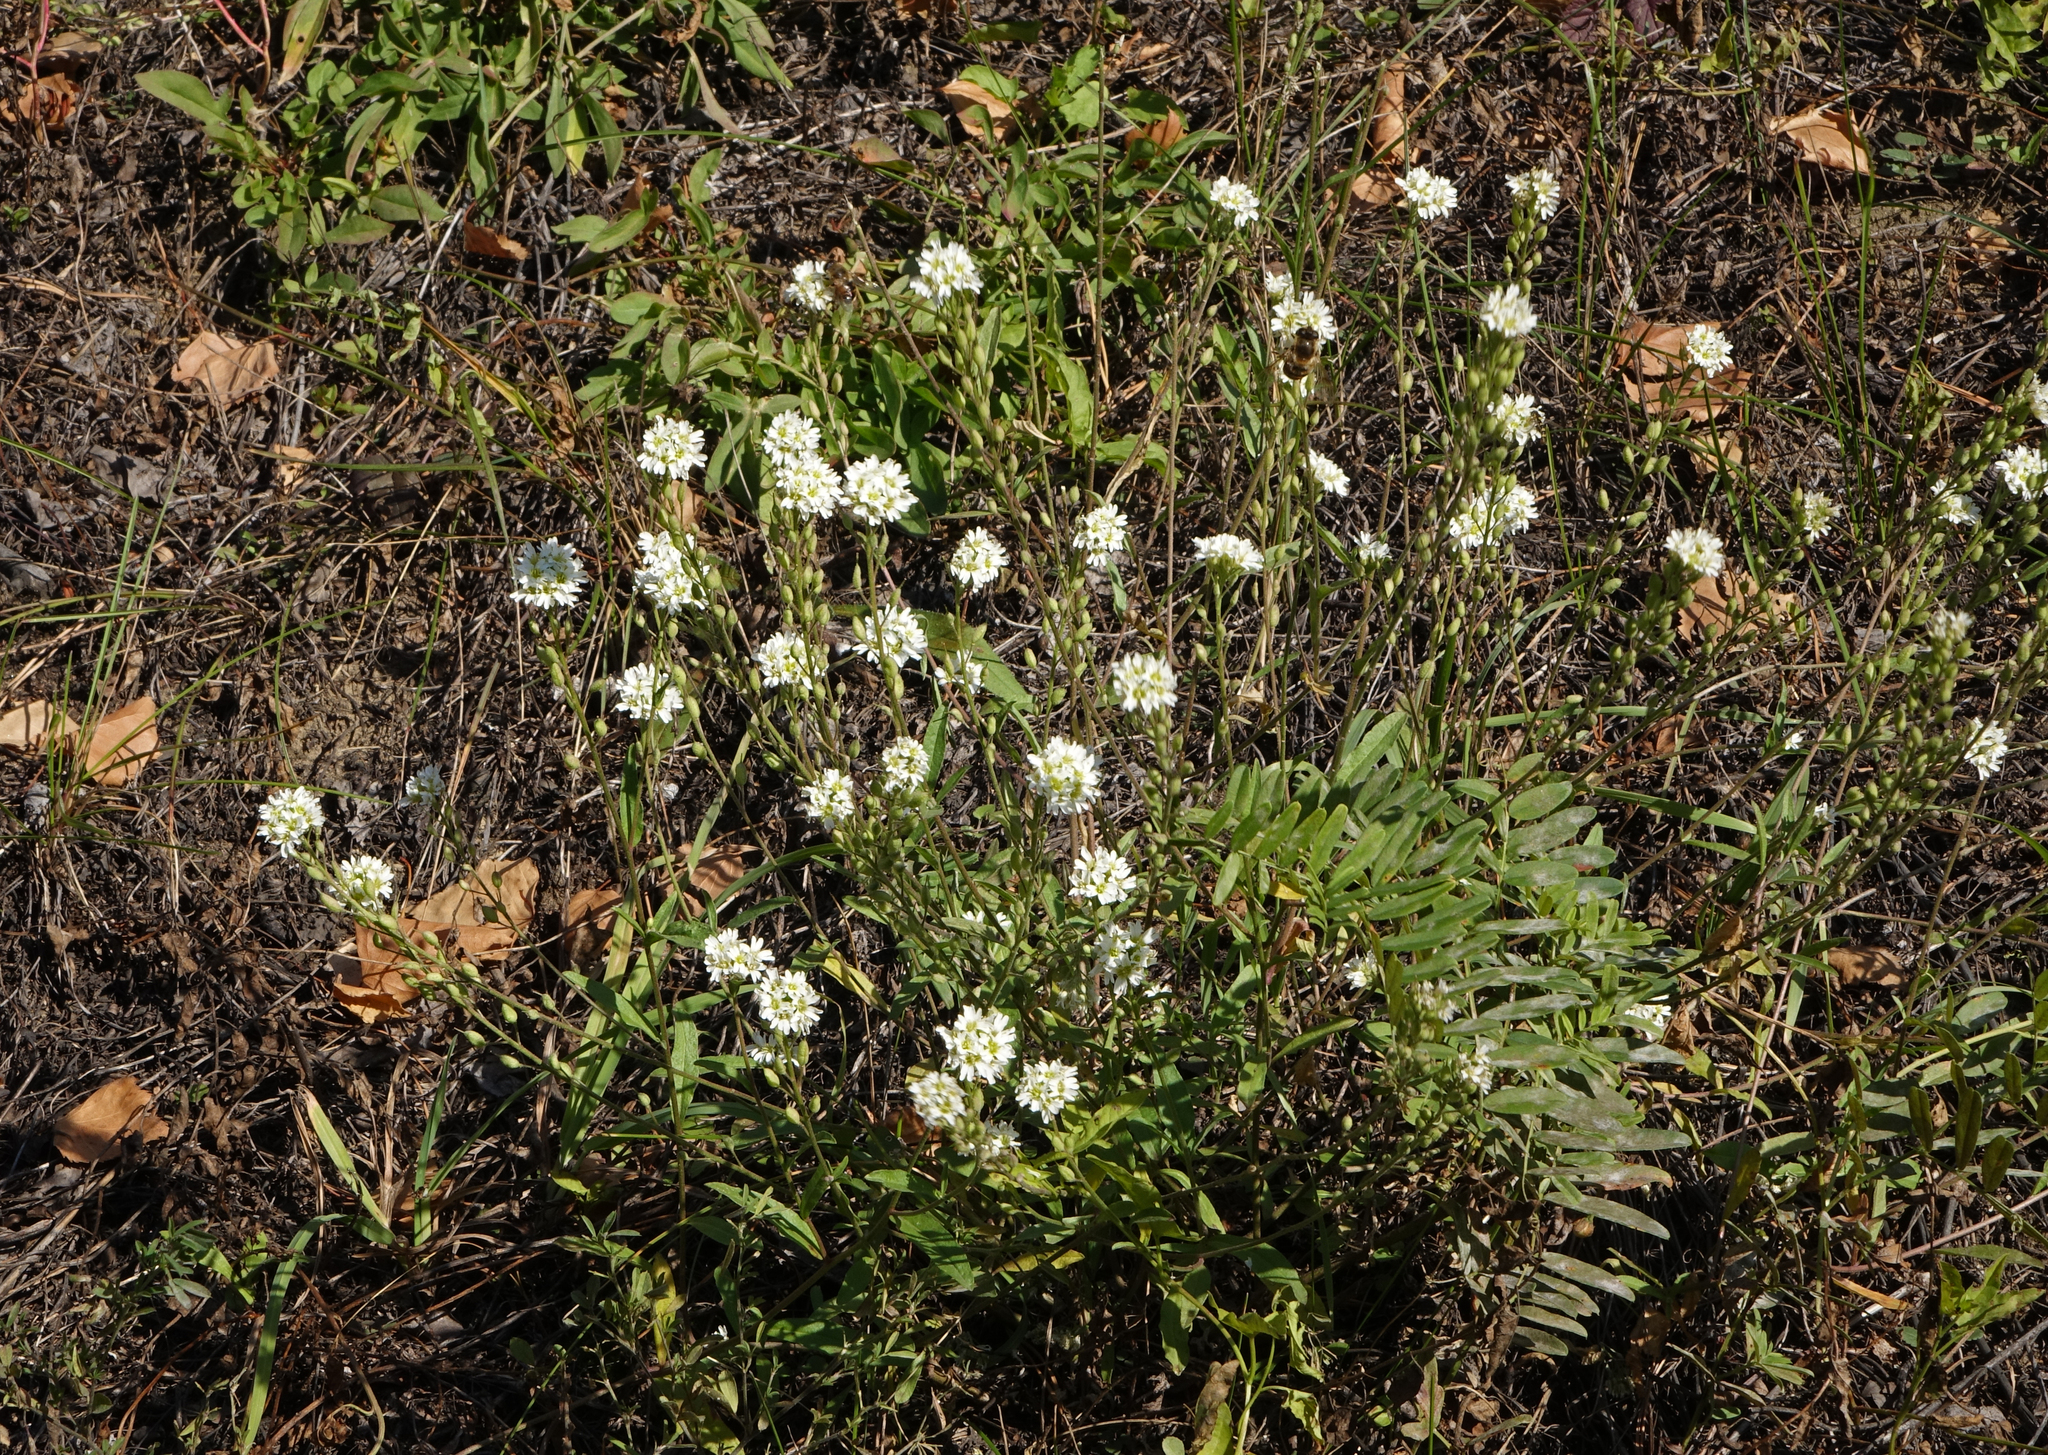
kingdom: Plantae
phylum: Tracheophyta
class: Magnoliopsida
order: Brassicales
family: Brassicaceae
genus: Berteroa
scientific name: Berteroa incana
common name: Hoary alison
